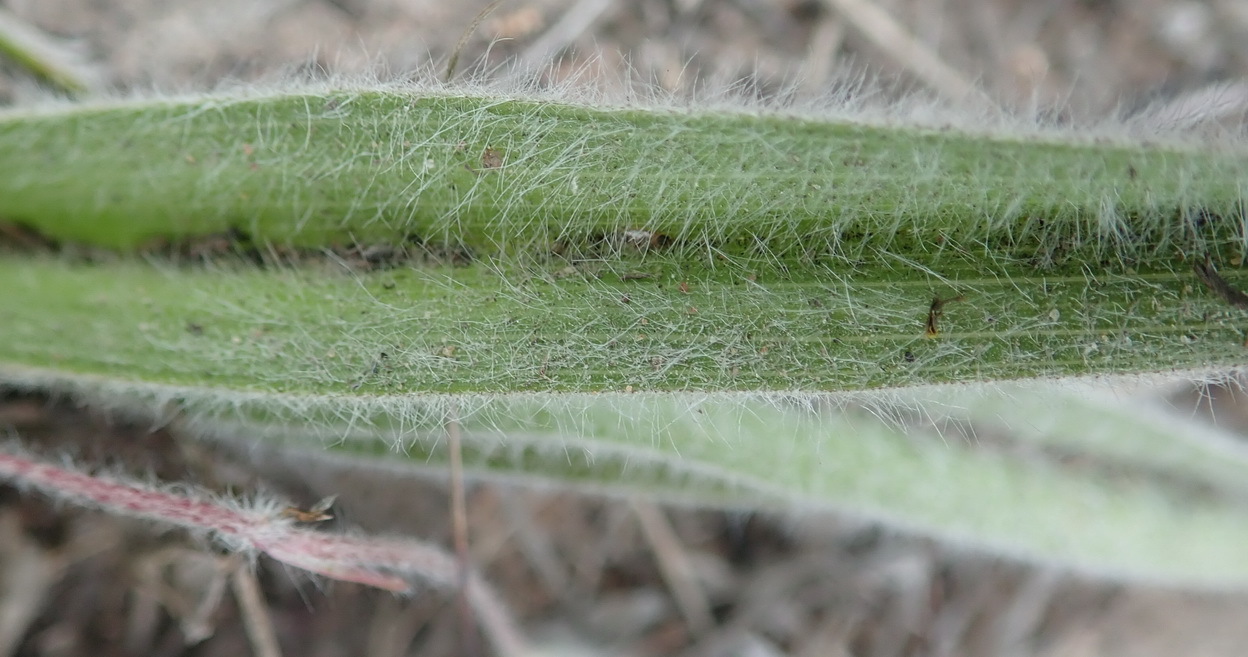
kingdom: Plantae
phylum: Tracheophyta
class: Liliopsida
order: Asparagales
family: Hypoxidaceae
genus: Hypoxis
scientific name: Hypoxis villosa
